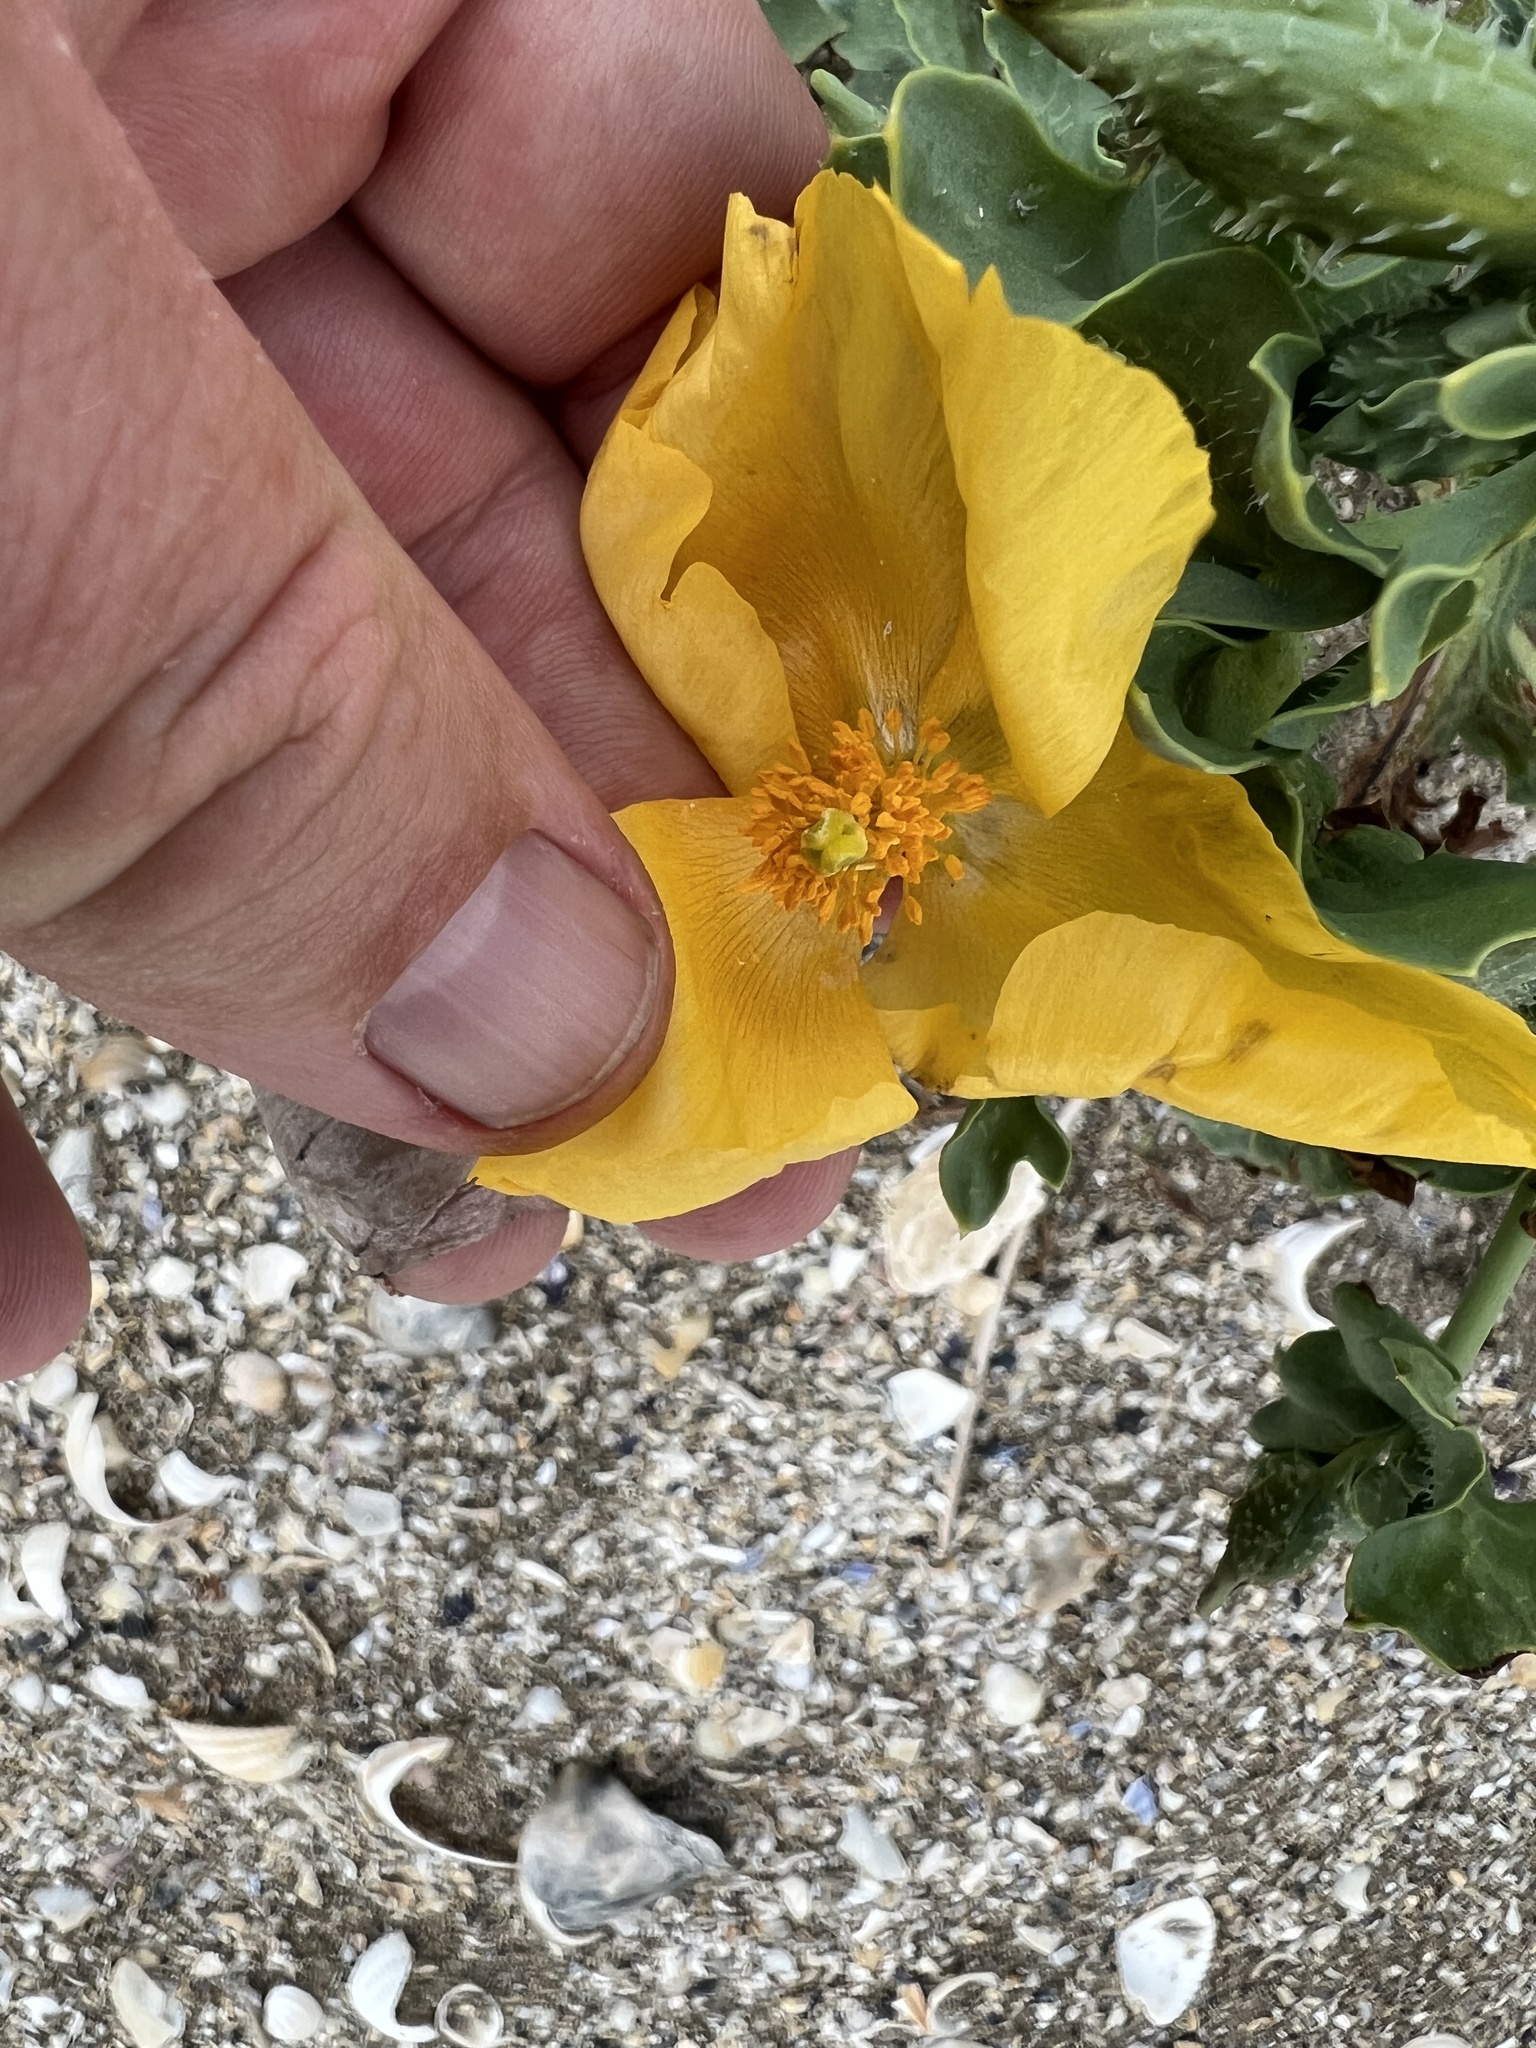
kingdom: Plantae
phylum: Tracheophyta
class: Magnoliopsida
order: Ranunculales
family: Papaveraceae
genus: Glaucium
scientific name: Glaucium flavum
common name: Yellow horned-poppy
